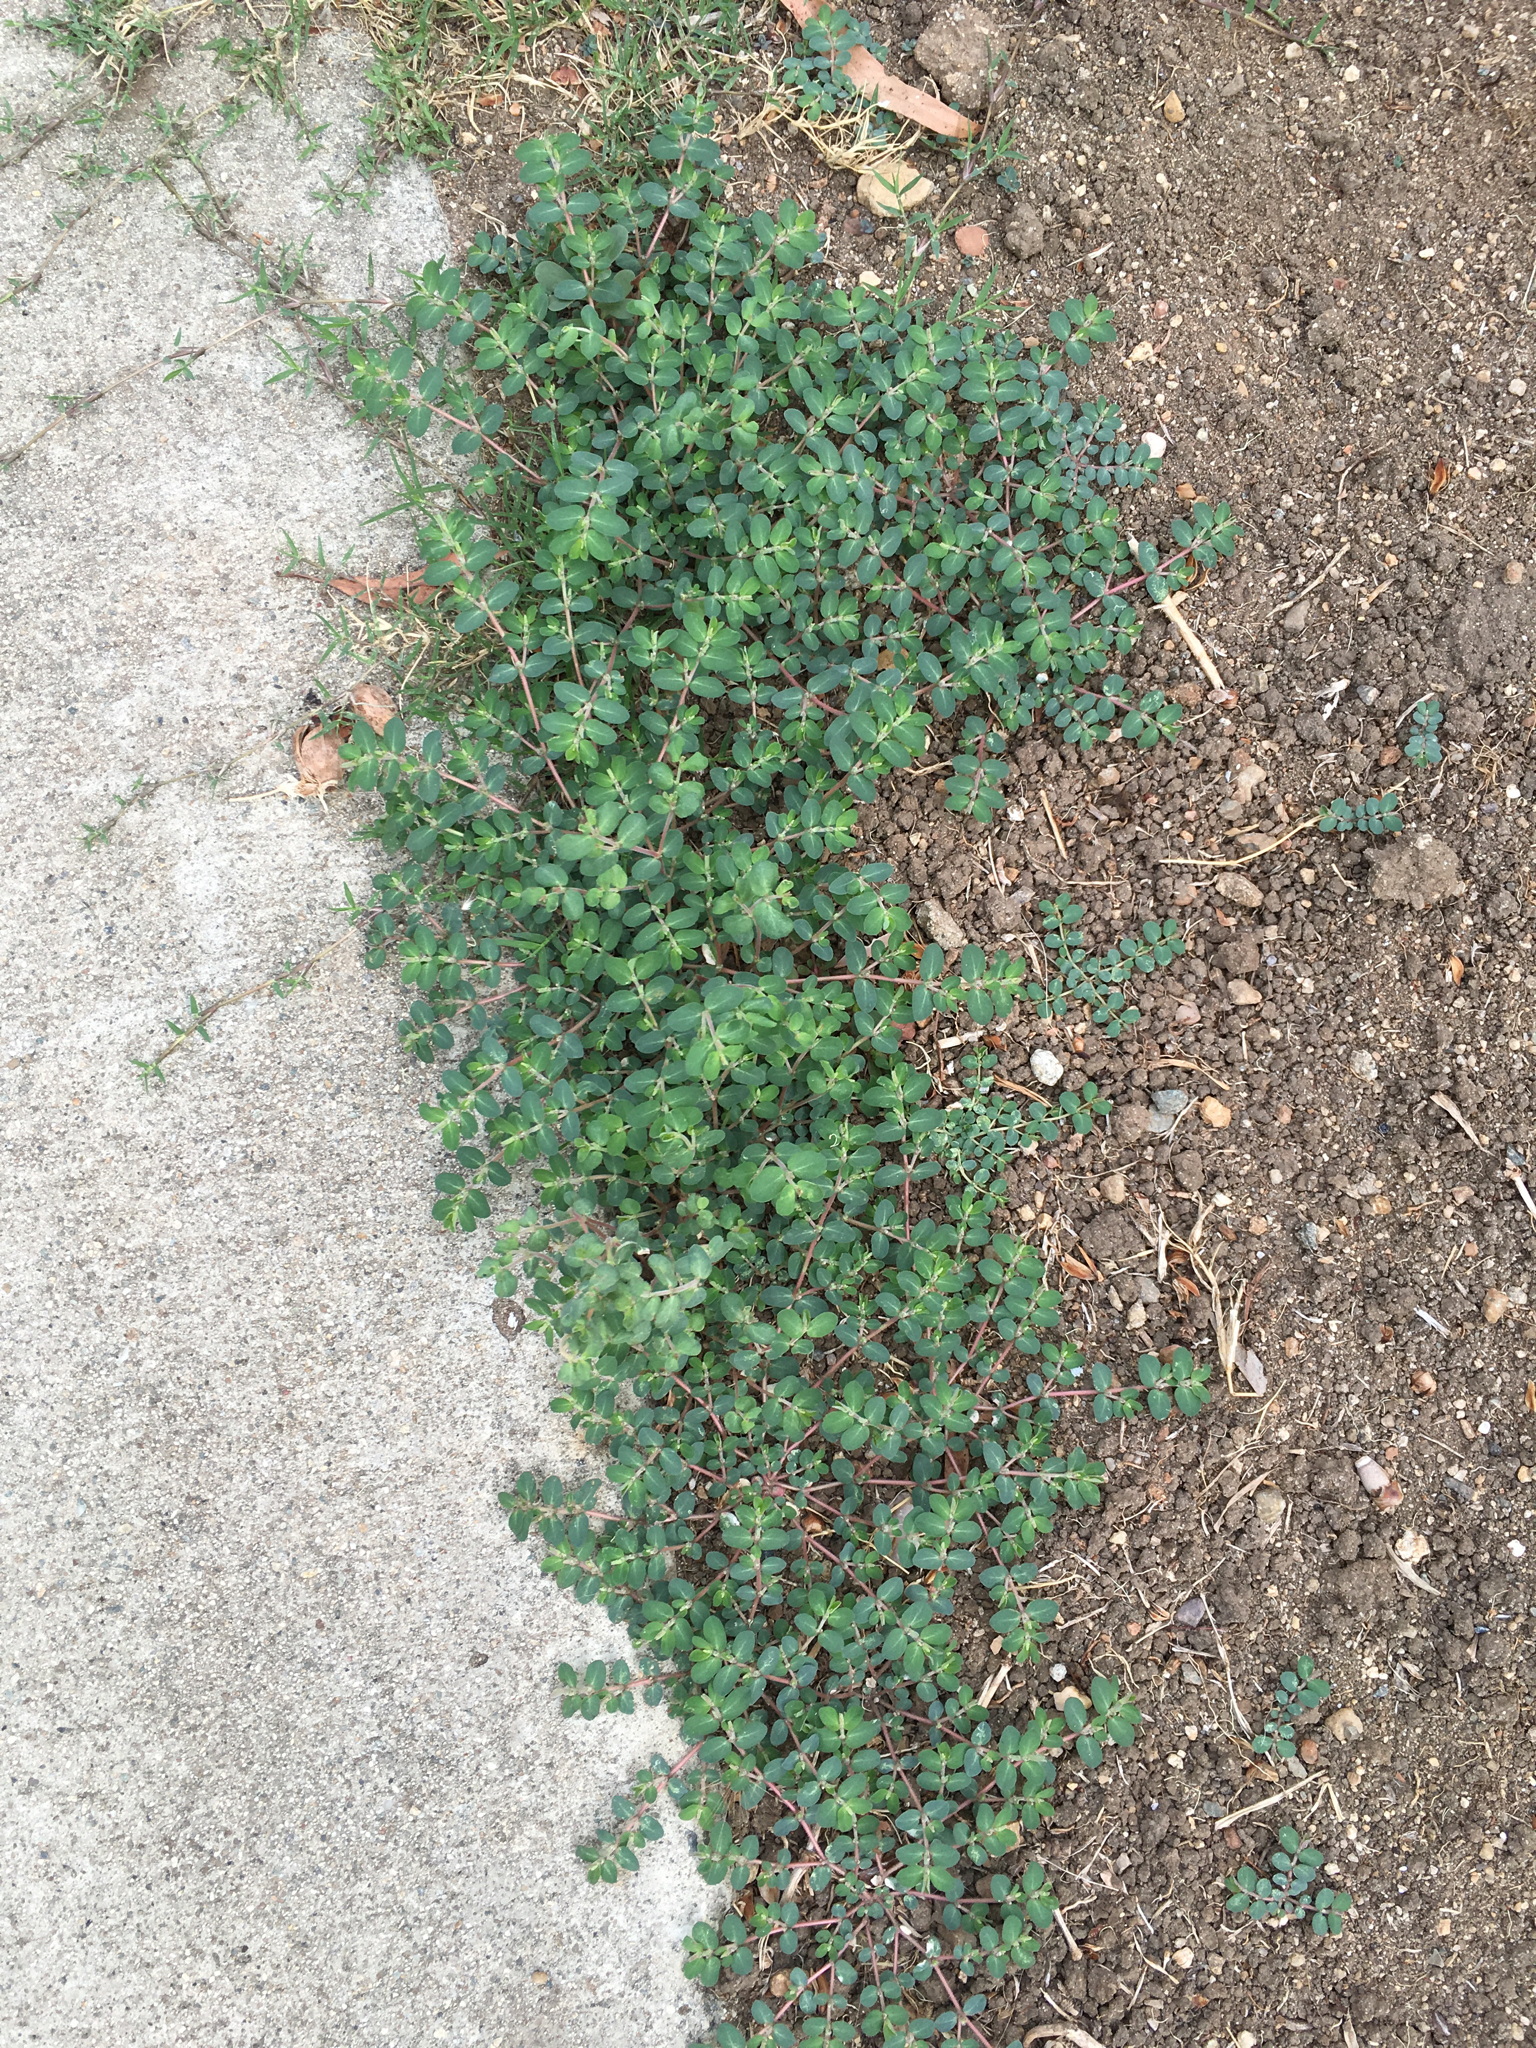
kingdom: Plantae
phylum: Tracheophyta
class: Magnoliopsida
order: Malpighiales
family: Euphorbiaceae
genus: Euphorbia
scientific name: Euphorbia prostrata
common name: Prostrate sandmat
